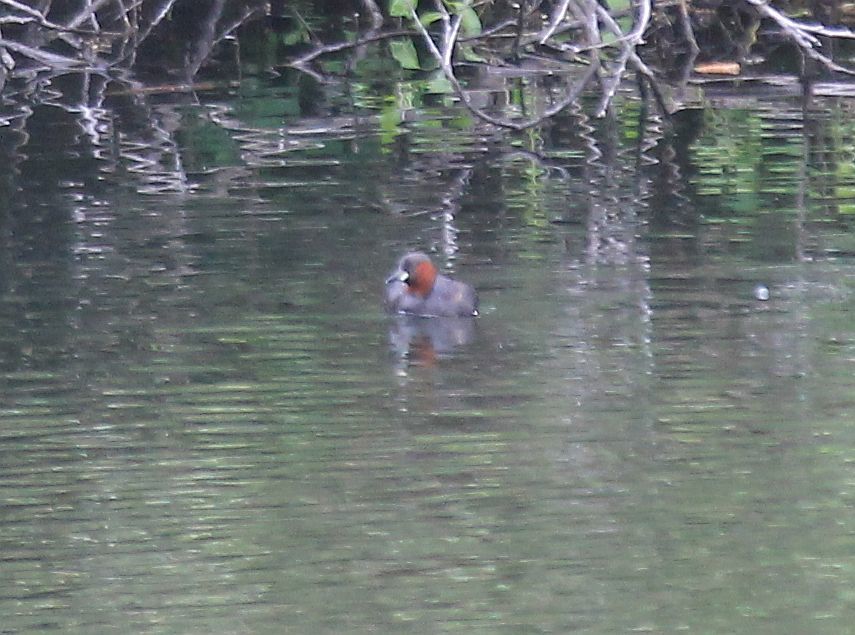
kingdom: Animalia
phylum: Chordata
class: Aves
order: Podicipediformes
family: Podicipedidae
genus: Tachybaptus
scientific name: Tachybaptus ruficollis
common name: Little grebe
